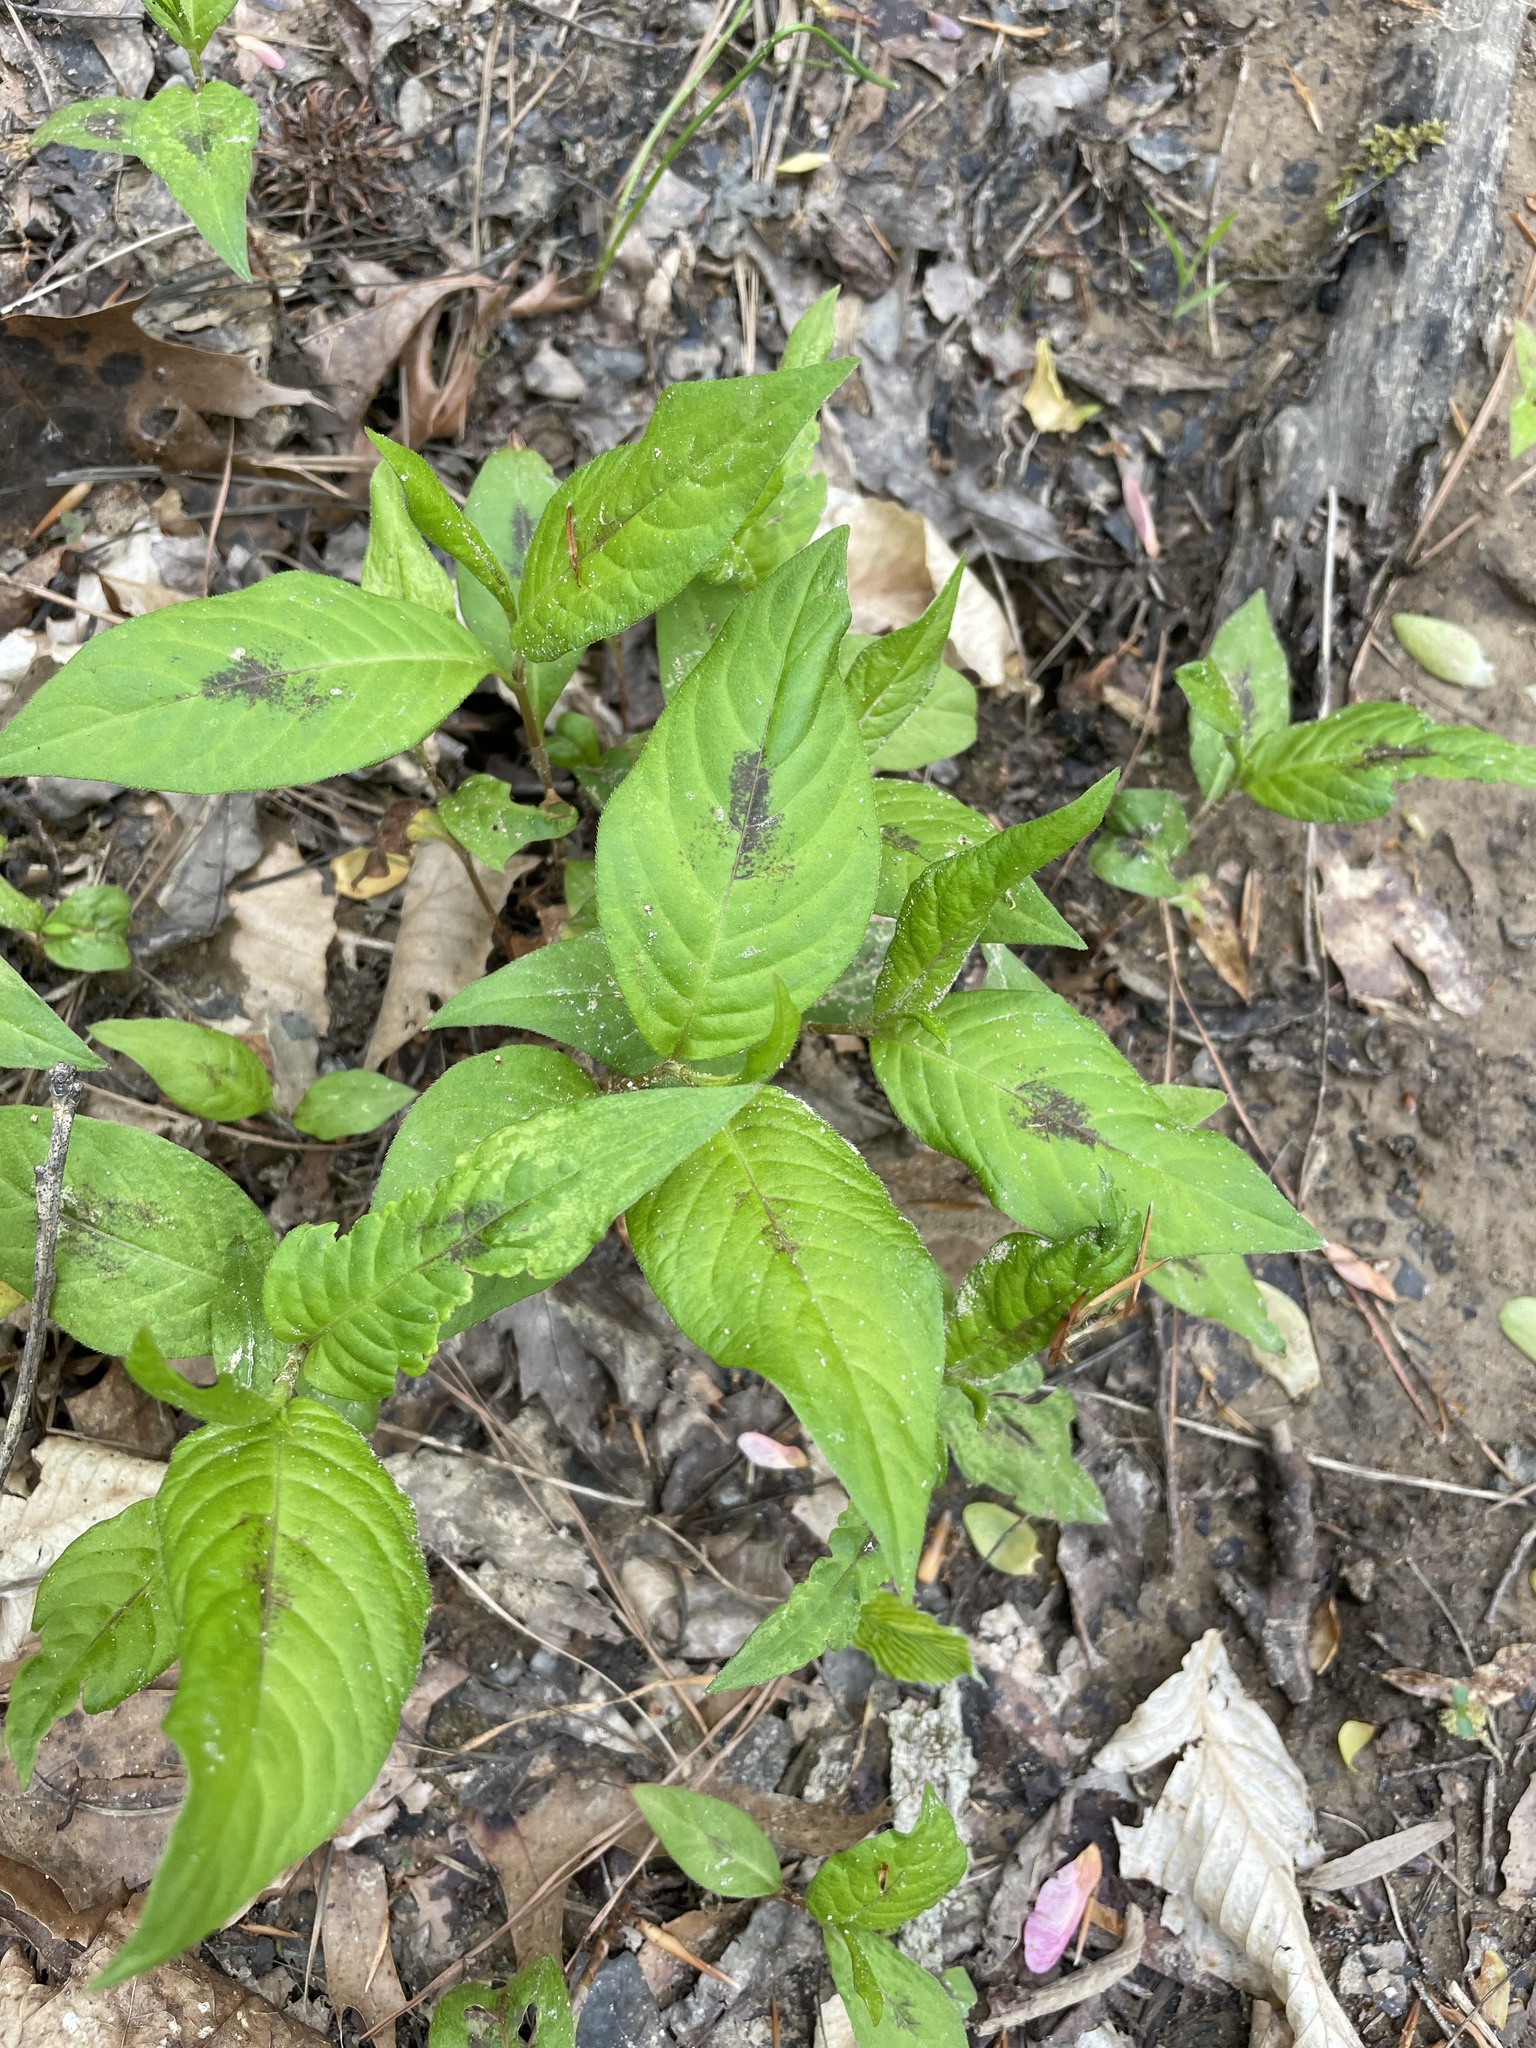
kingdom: Plantae
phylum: Tracheophyta
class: Magnoliopsida
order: Caryophyllales
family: Polygonaceae
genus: Persicaria
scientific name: Persicaria virginiana
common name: Jumpseed
